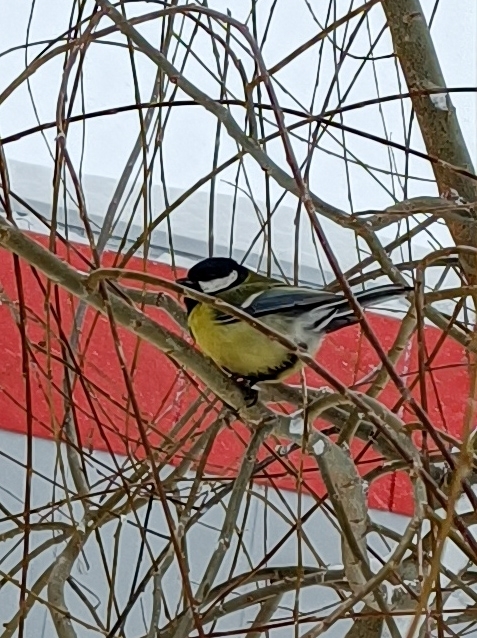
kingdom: Animalia
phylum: Chordata
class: Aves
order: Passeriformes
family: Paridae
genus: Parus
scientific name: Parus major
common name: Great tit
